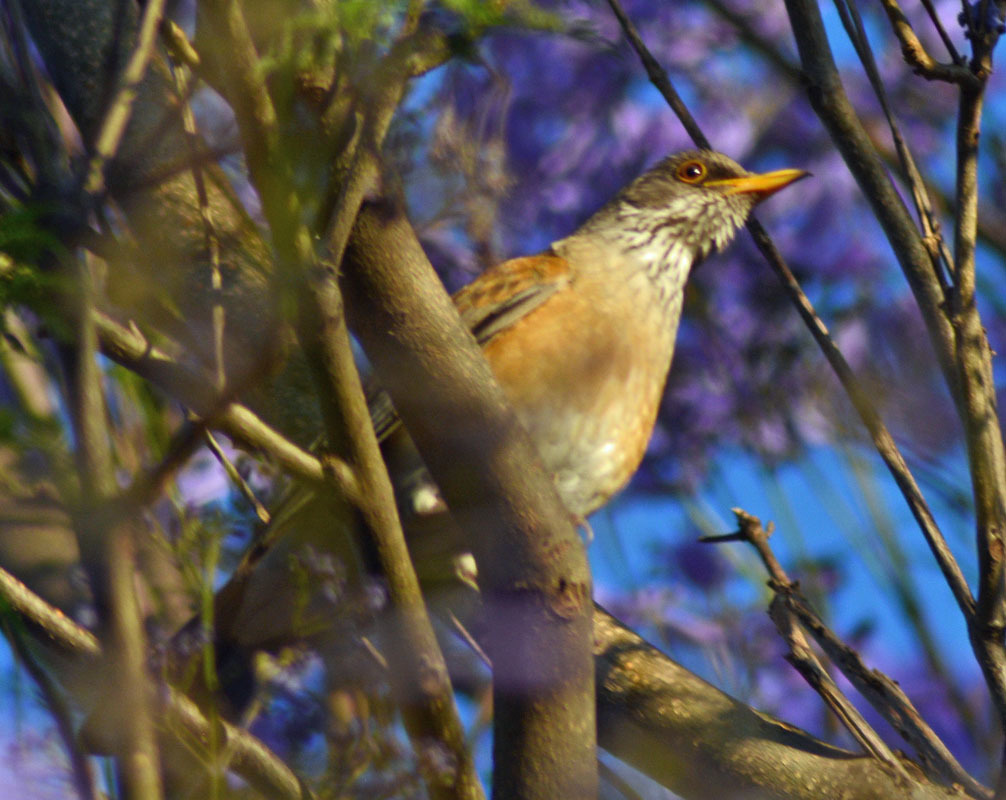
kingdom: Animalia
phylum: Chordata
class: Aves
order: Passeriformes
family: Turdidae
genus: Turdus
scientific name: Turdus rufopalliatus
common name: Rufous-backed robin
